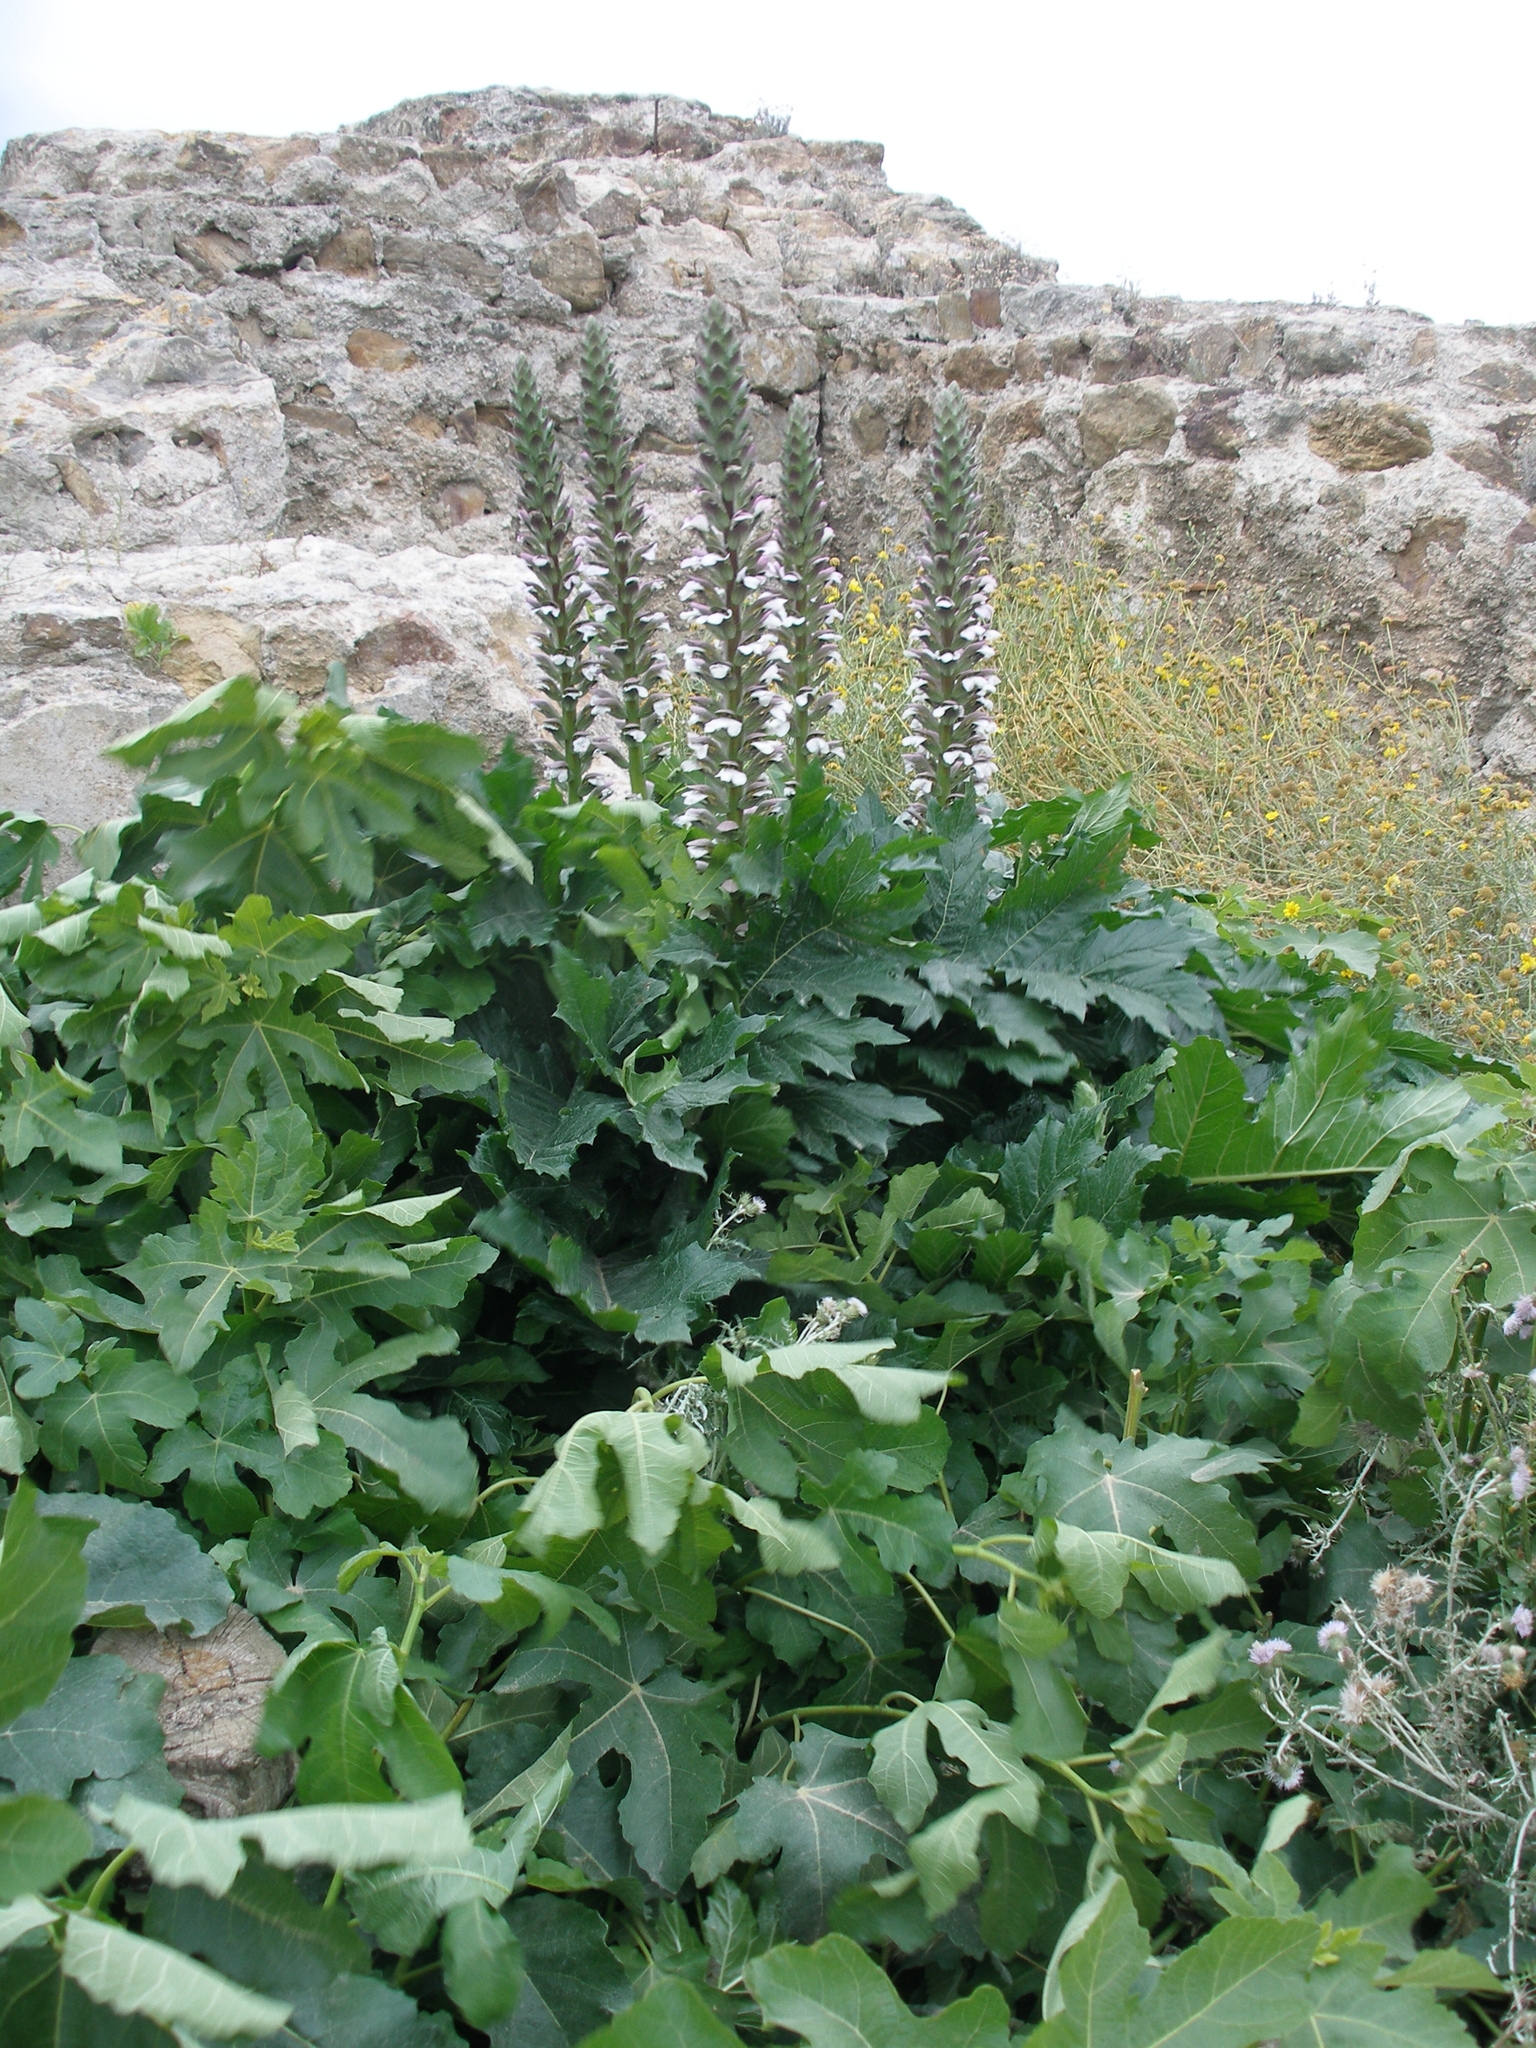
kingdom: Plantae
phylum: Tracheophyta
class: Magnoliopsida
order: Lamiales
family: Acanthaceae
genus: Acanthus
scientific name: Acanthus mollis
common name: Bear's-breech
